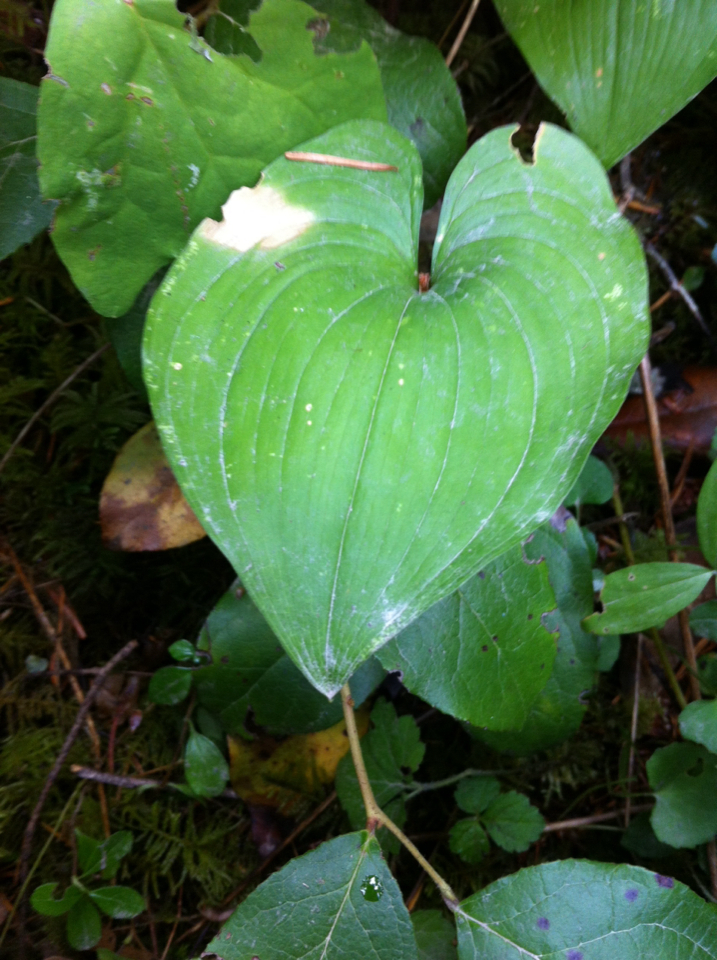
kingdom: Plantae
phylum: Tracheophyta
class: Liliopsida
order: Asparagales
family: Asparagaceae
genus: Maianthemum
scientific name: Maianthemum dilatatum
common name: False lily-of-the-valley
